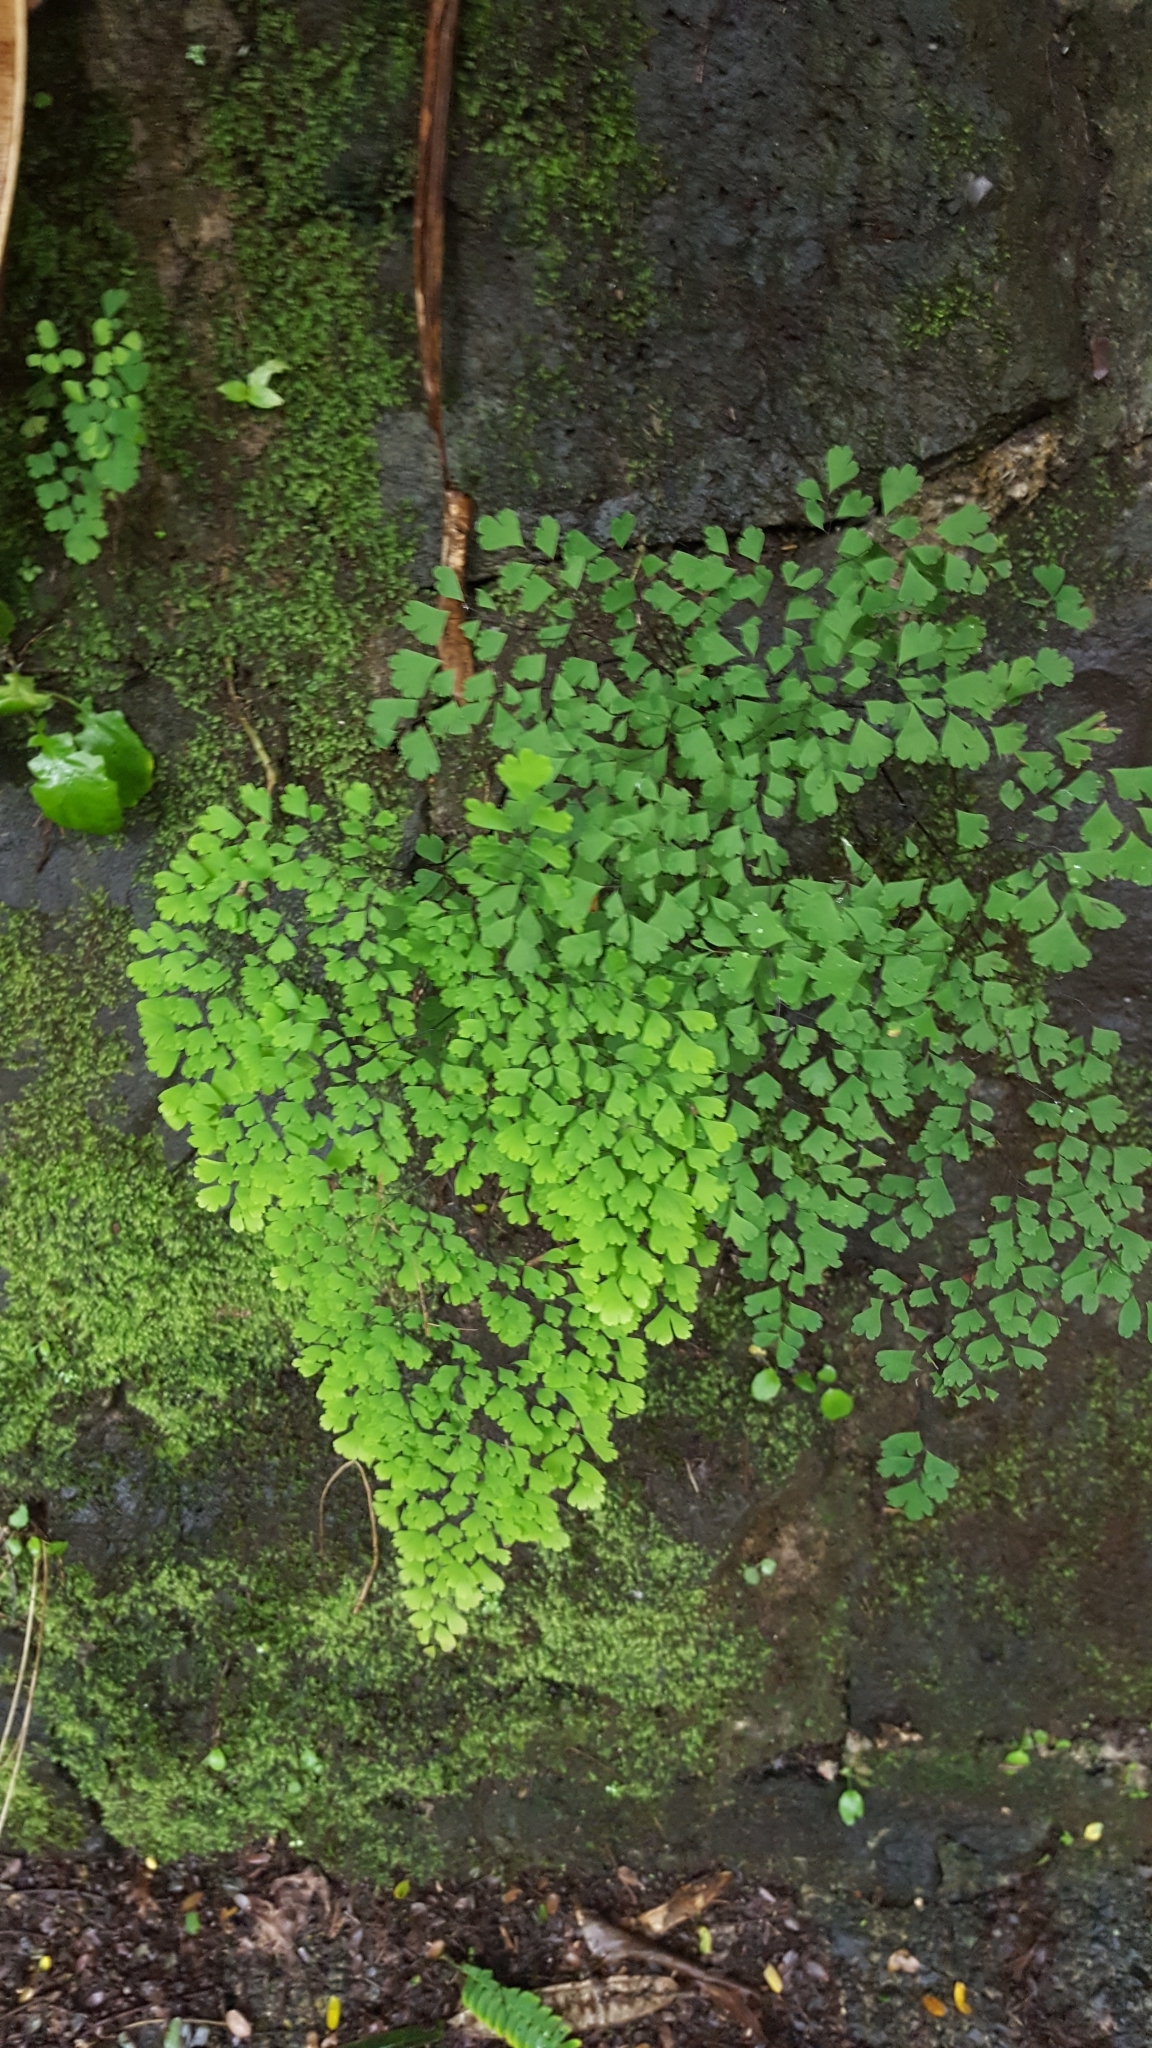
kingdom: Plantae
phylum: Tracheophyta
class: Polypodiopsida
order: Polypodiales
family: Pteridaceae
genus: Adiantum
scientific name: Adiantum raddianum
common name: Delta maidenhair fern
